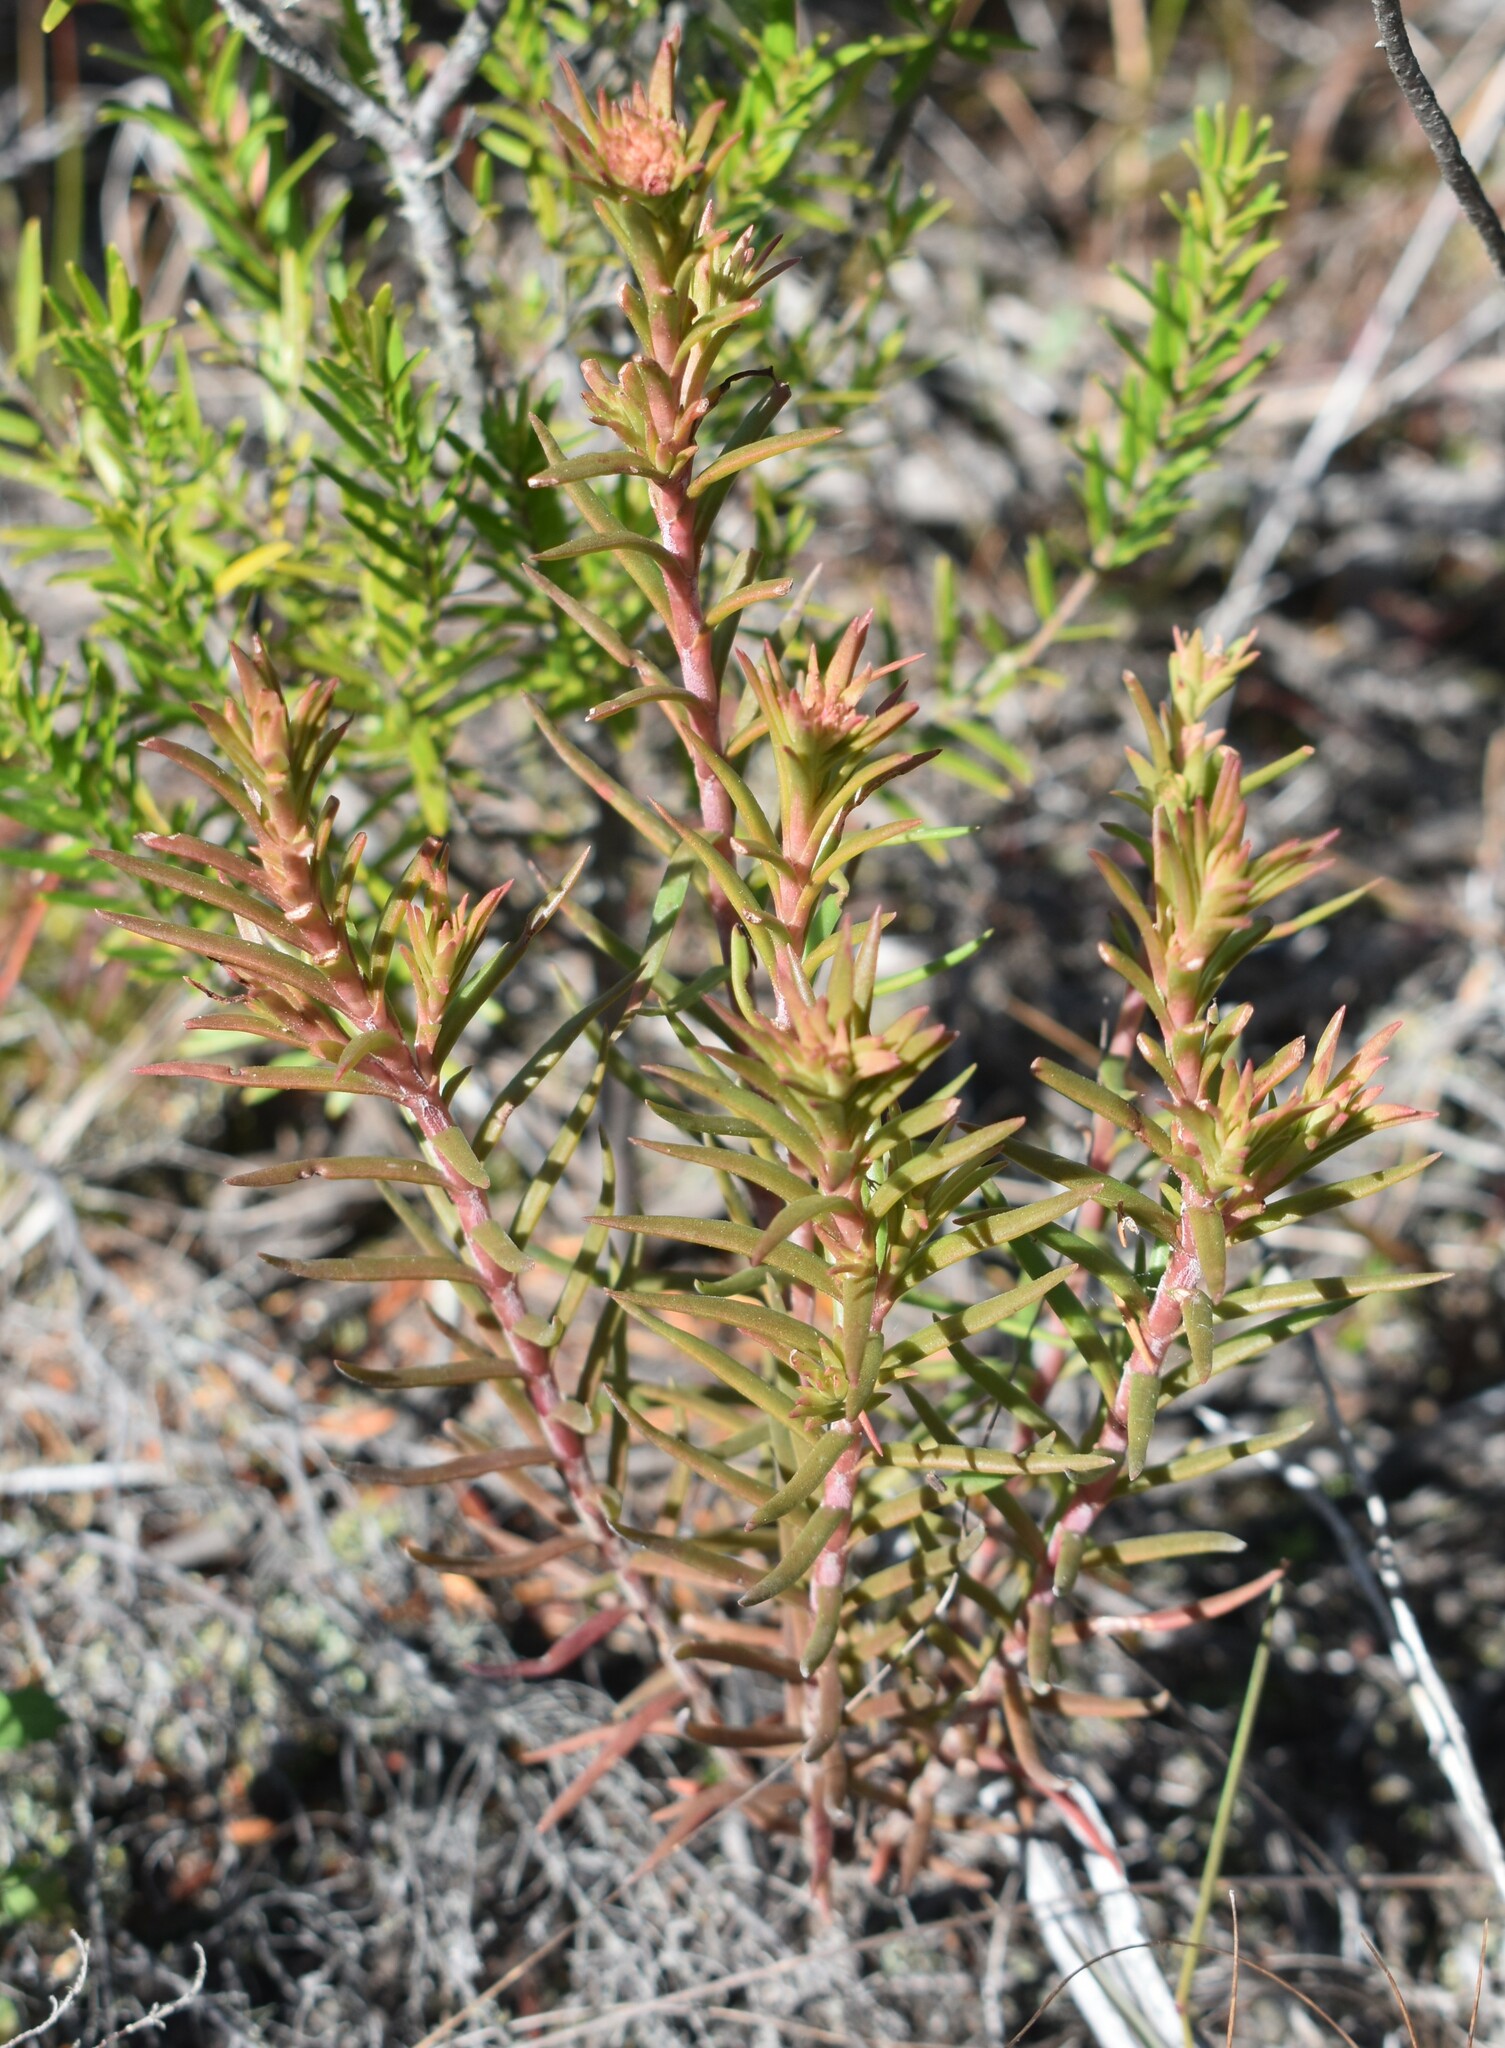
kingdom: Plantae
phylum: Tracheophyta
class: Magnoliopsida
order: Saxifragales
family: Crassulaceae
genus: Crassula
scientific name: Crassula subulata
